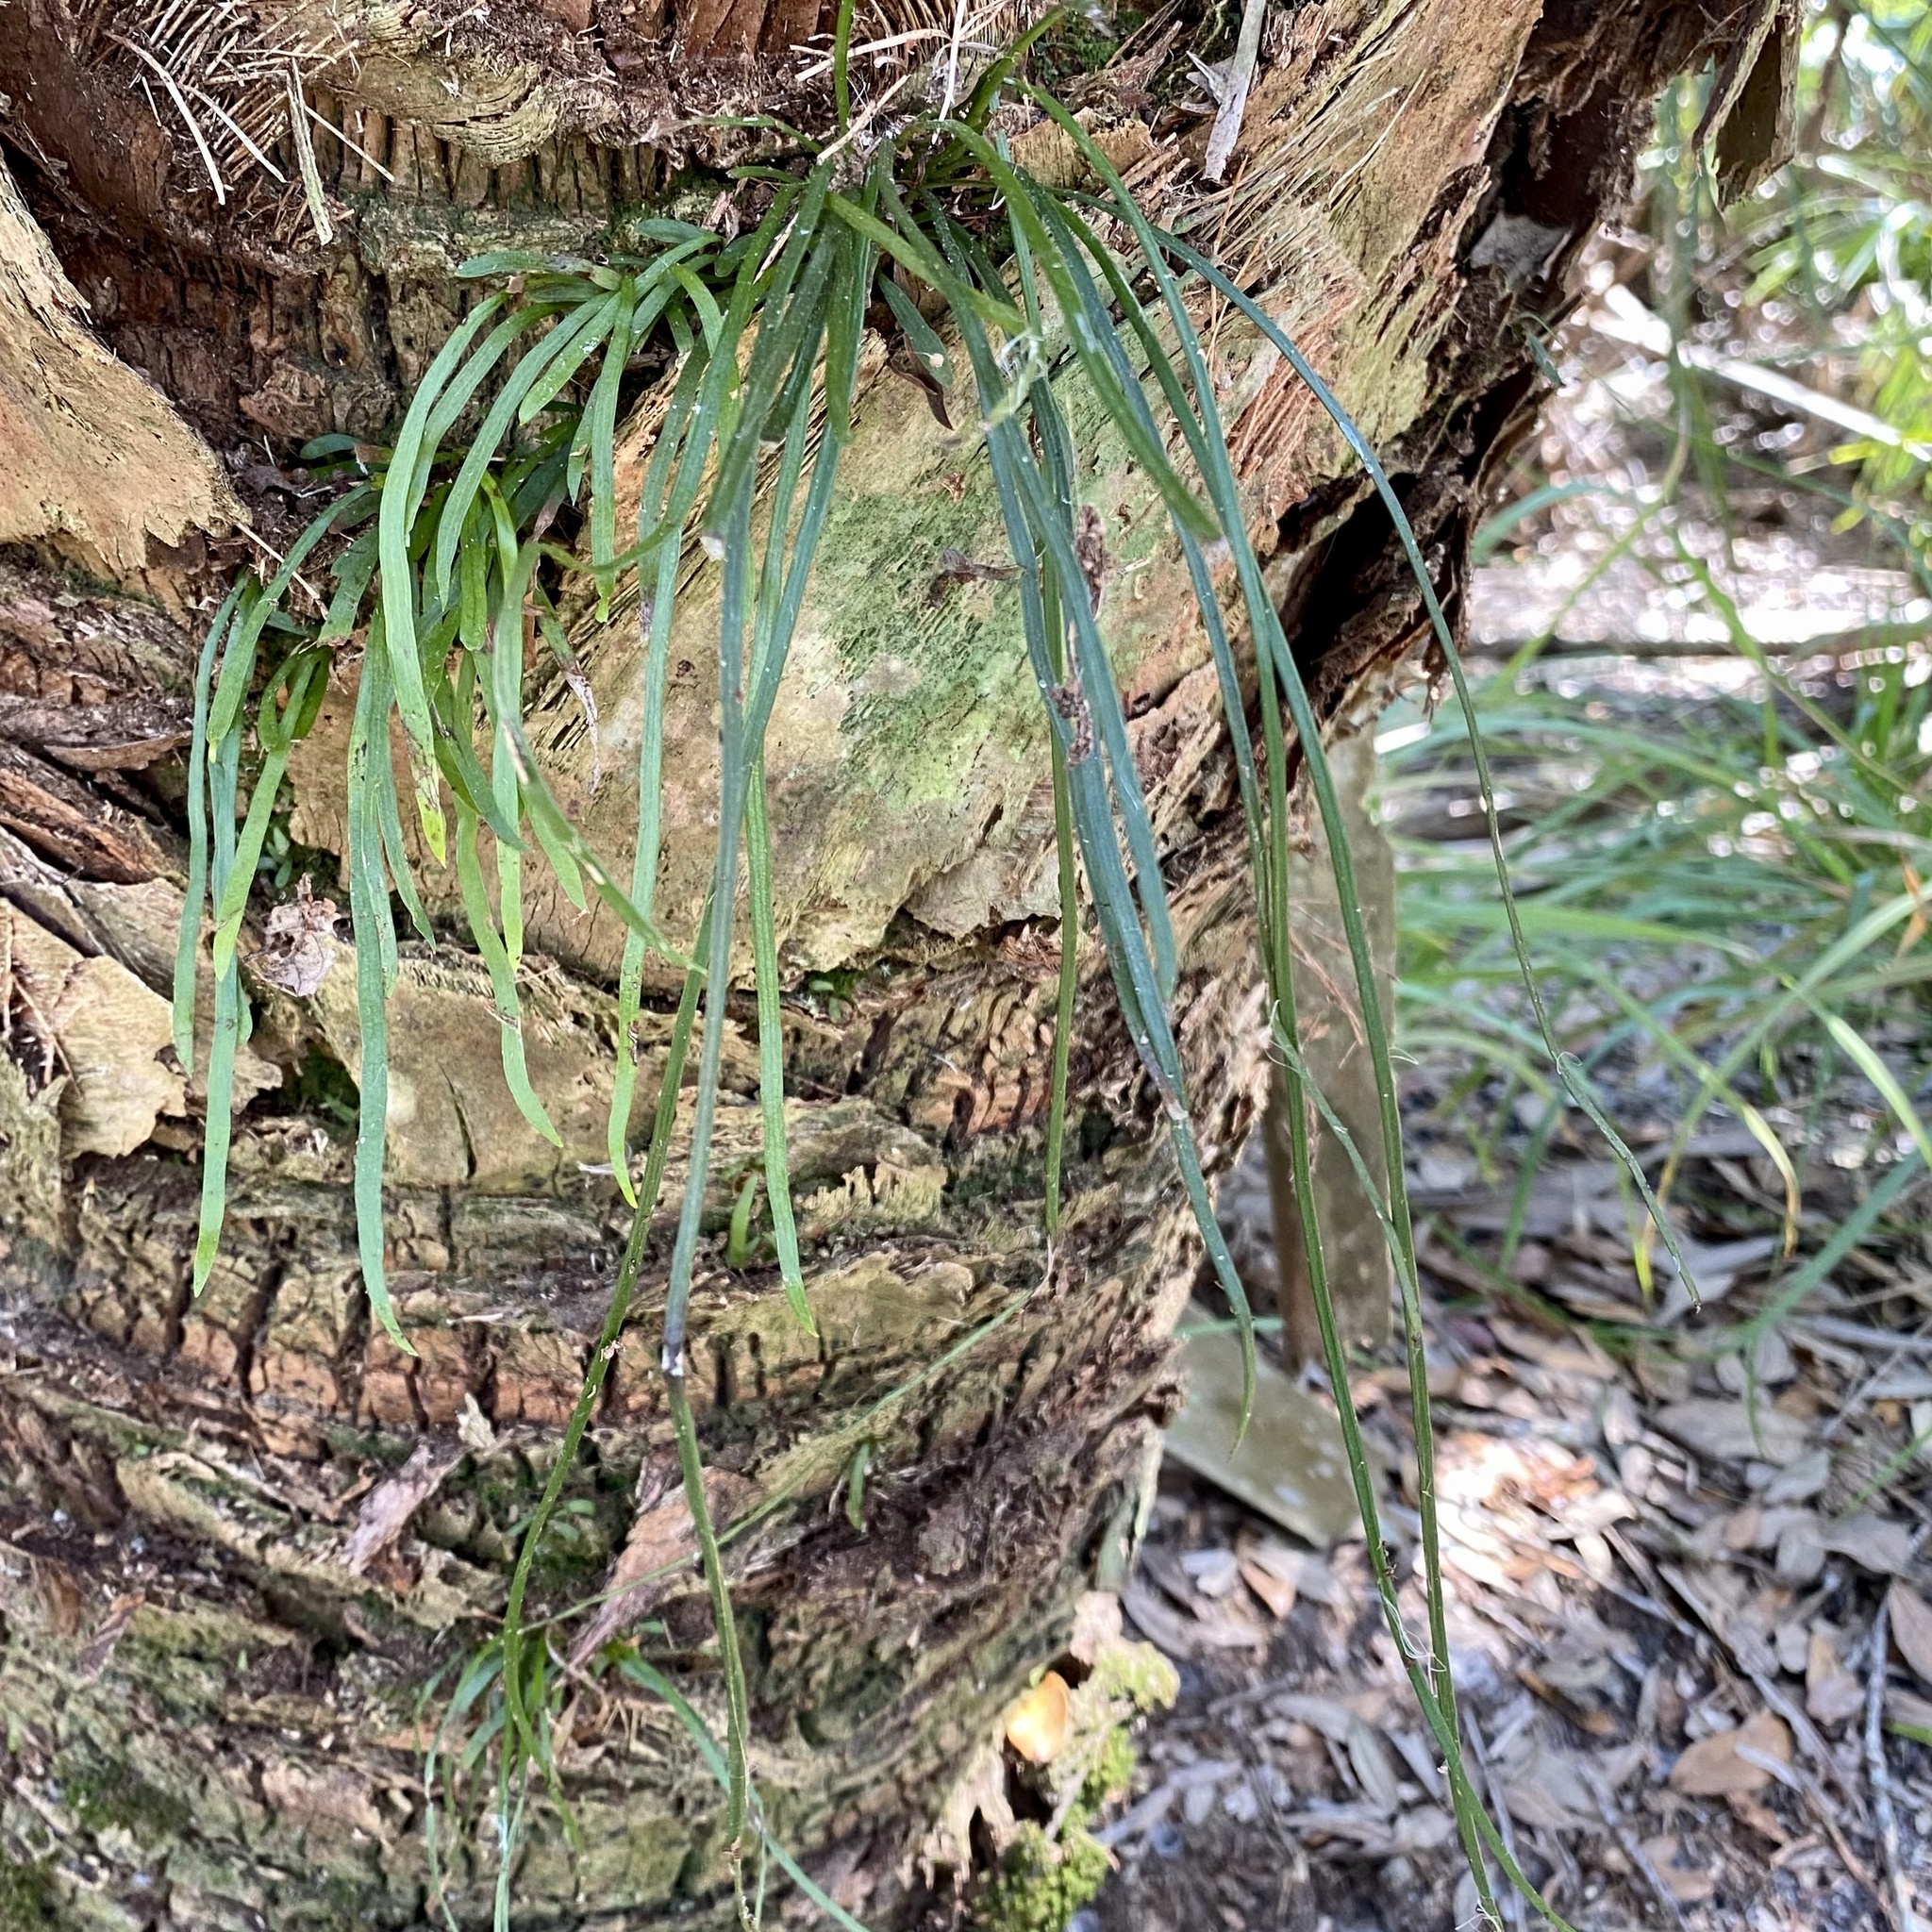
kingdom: Plantae
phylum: Tracheophyta
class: Polypodiopsida
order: Polypodiales
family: Pteridaceae
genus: Vittaria
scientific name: Vittaria lineata
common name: Shoestring fern
